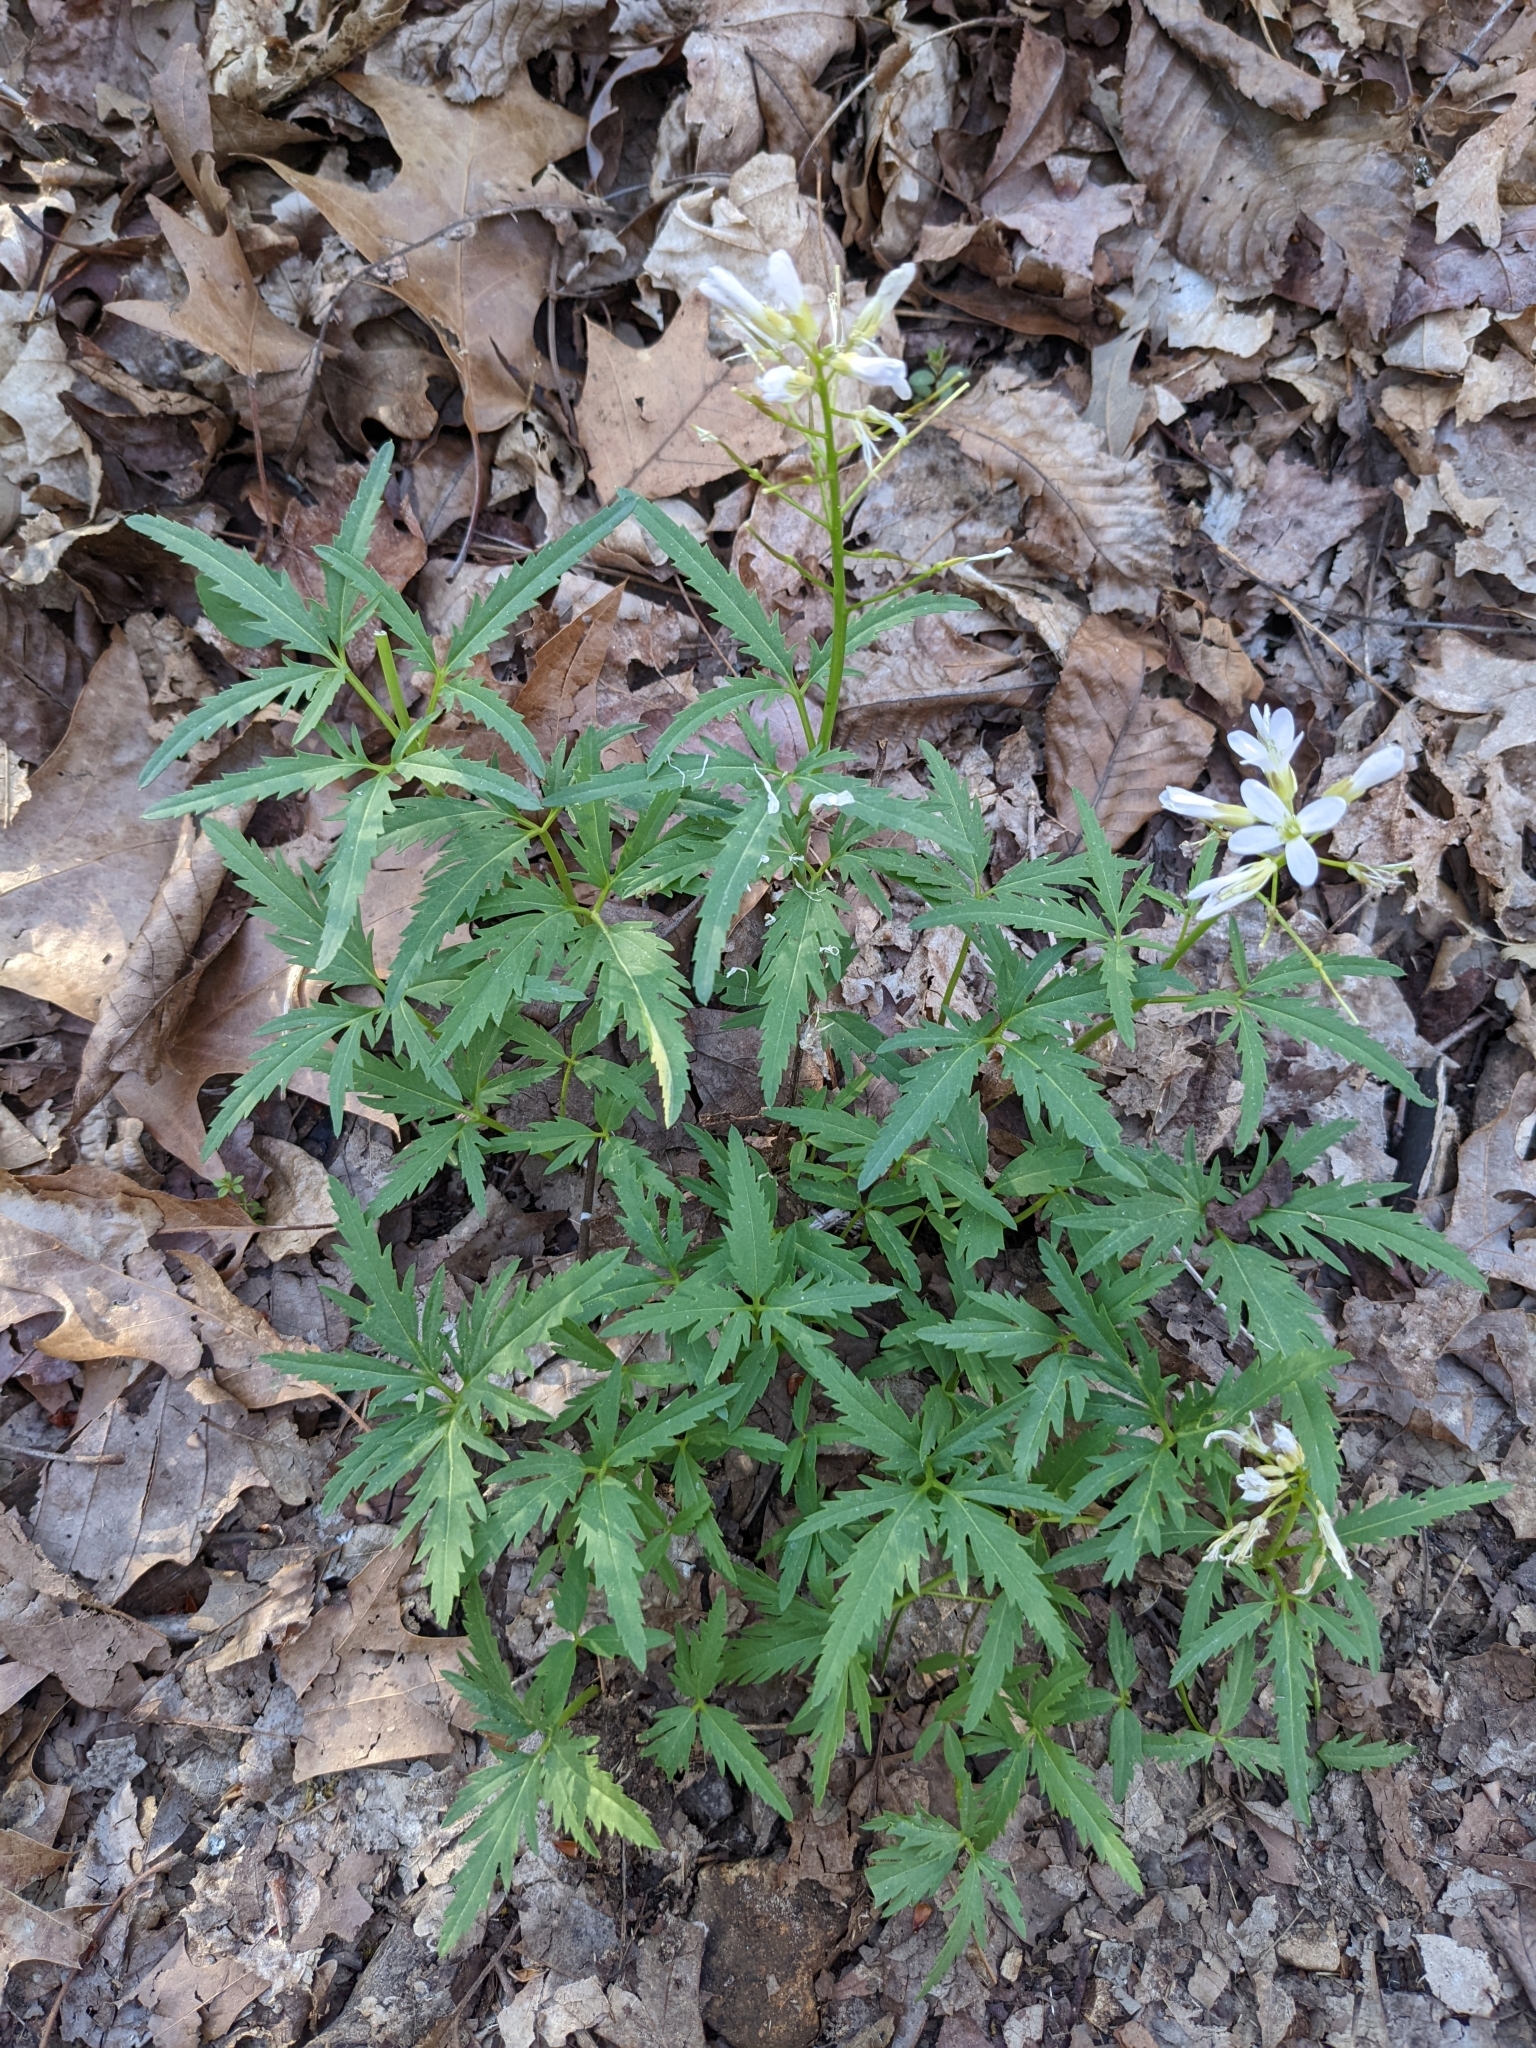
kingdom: Plantae
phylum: Tracheophyta
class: Magnoliopsida
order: Brassicales
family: Brassicaceae
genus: Cardamine
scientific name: Cardamine concatenata
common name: Cut-leaf toothcup
